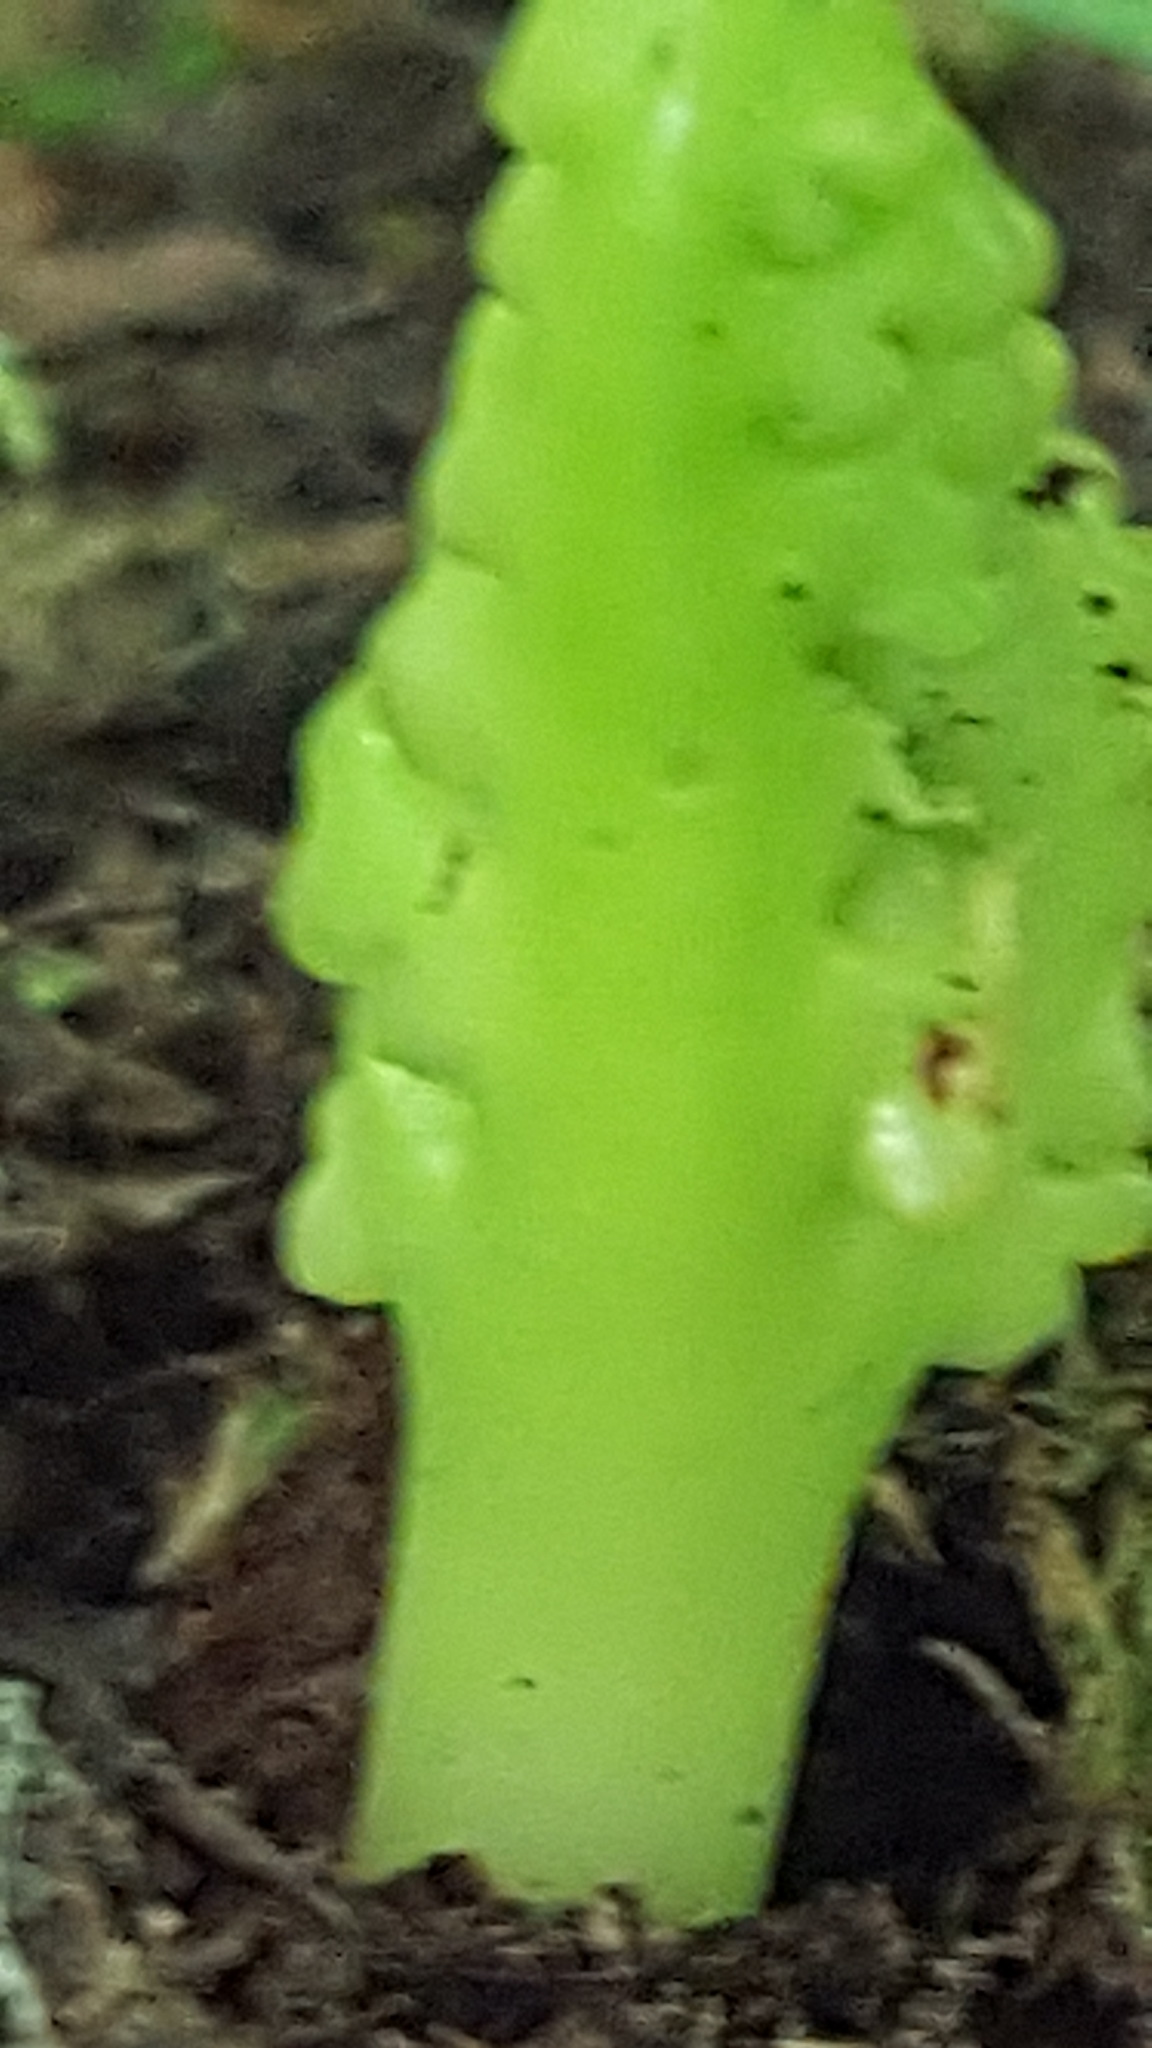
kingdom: Plantae
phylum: Tracheophyta
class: Polypodiopsida
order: Ophioglossales
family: Ophioglossaceae
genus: Botrychium
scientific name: Botrychium mormo
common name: Goblin fern
